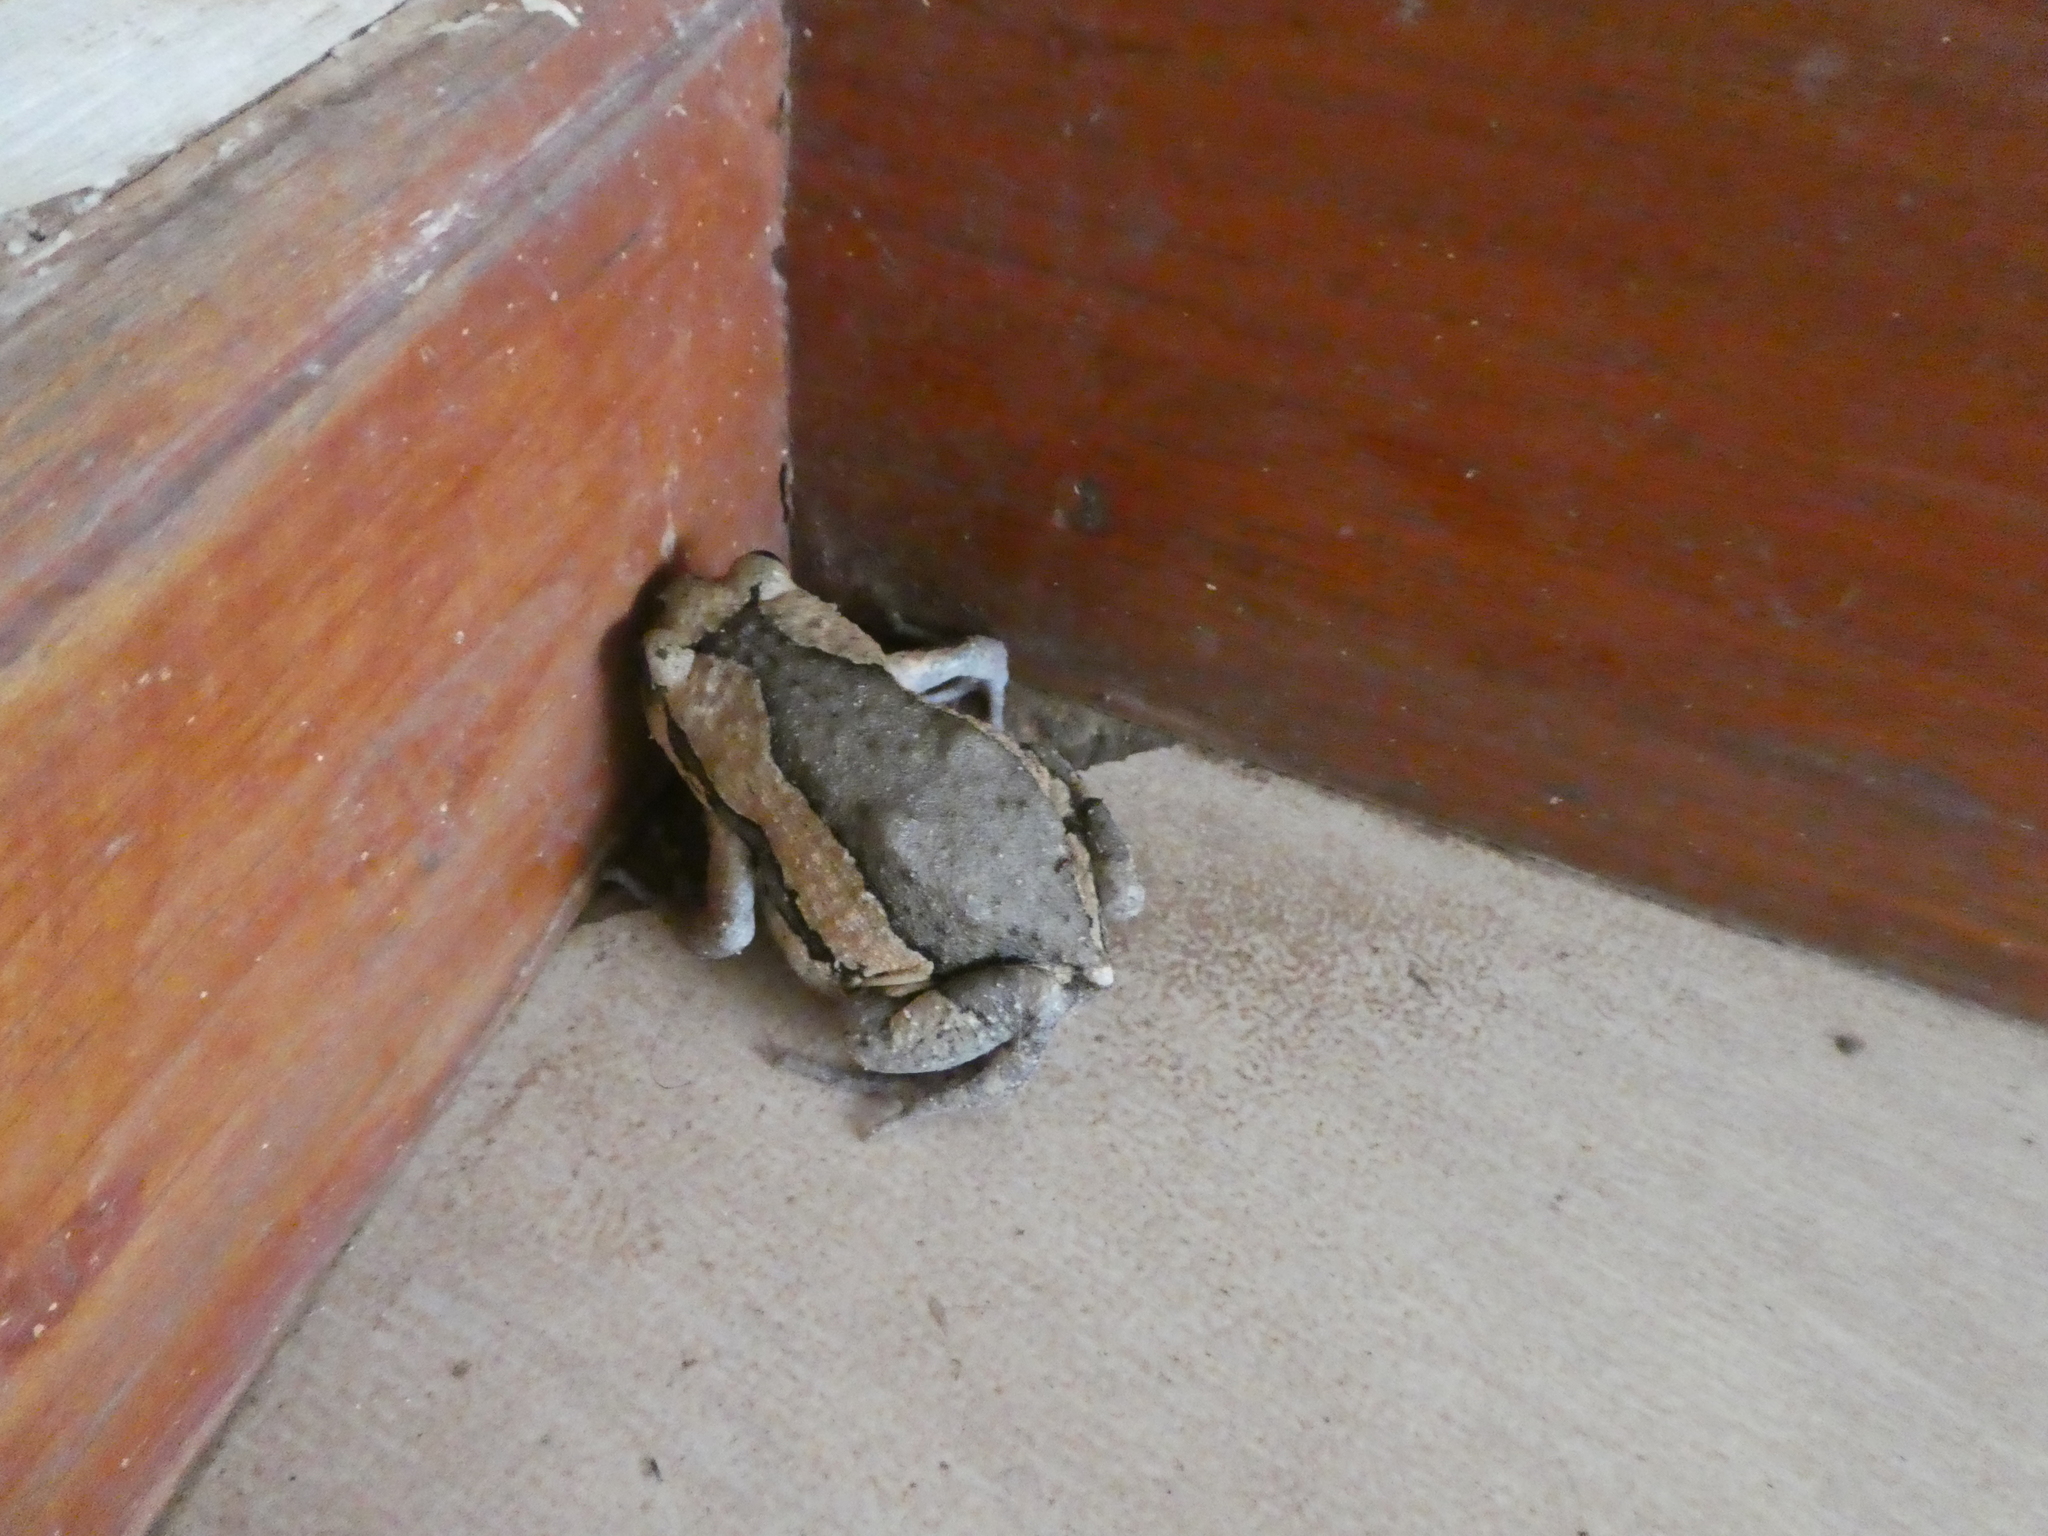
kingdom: Animalia
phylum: Chordata
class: Amphibia
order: Anura
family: Microhylidae
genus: Kaloula
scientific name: Kaloula pulchra
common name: Common,banded bullfrog
